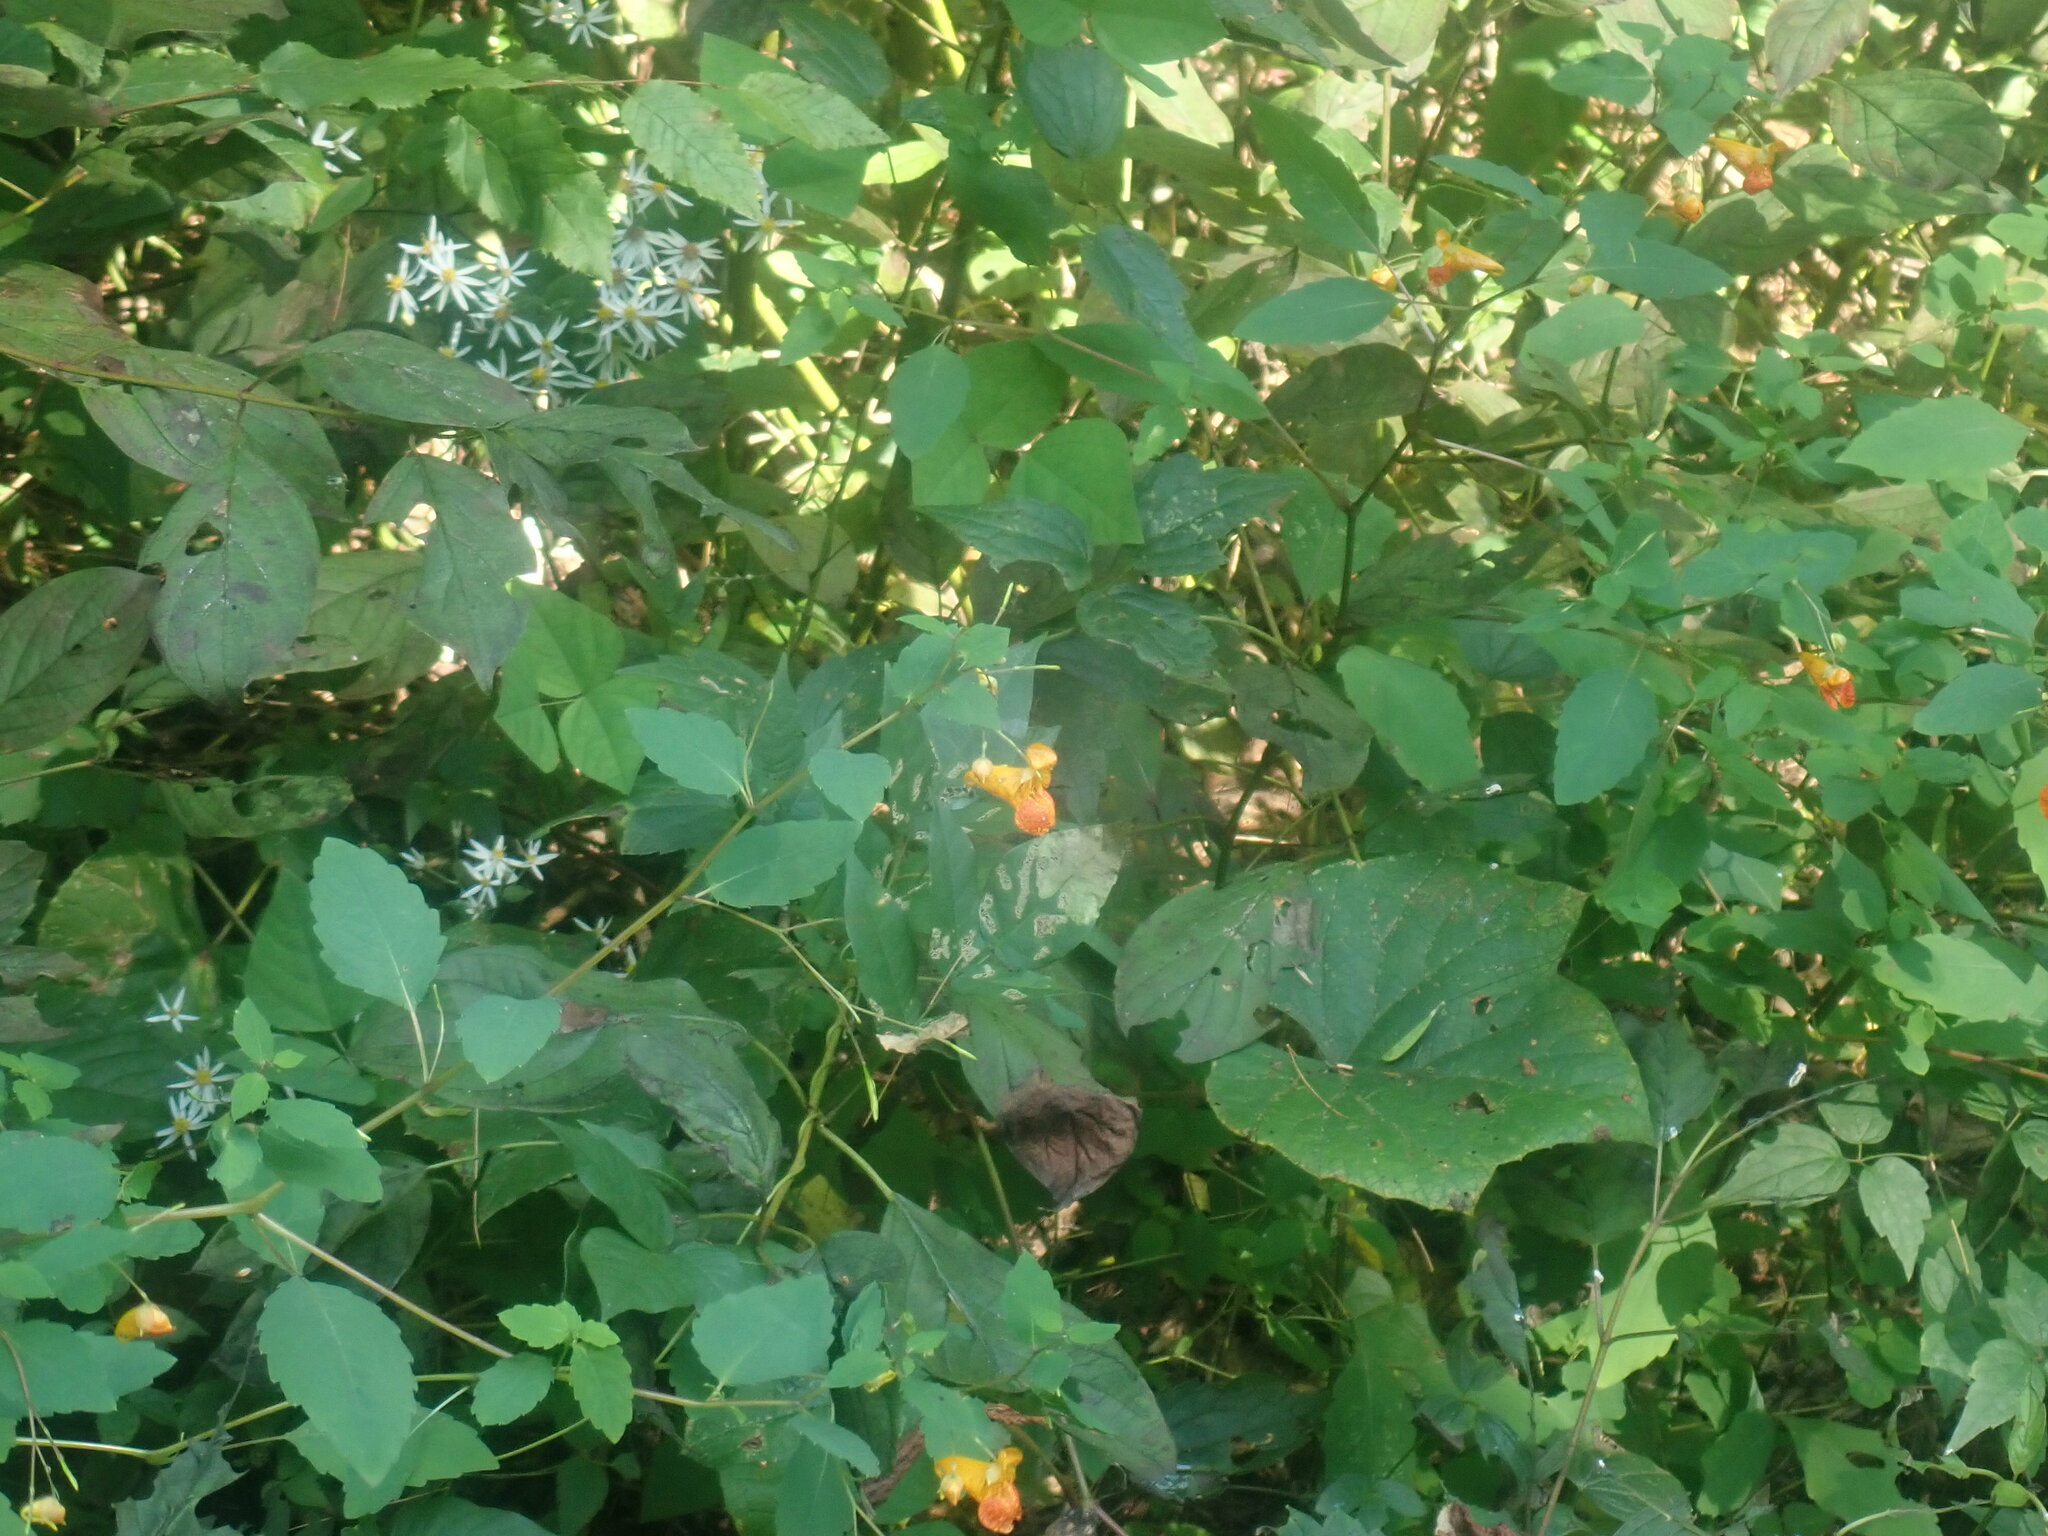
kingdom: Plantae
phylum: Tracheophyta
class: Magnoliopsida
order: Ericales
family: Balsaminaceae
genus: Impatiens
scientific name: Impatiens capensis
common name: Orange balsam
